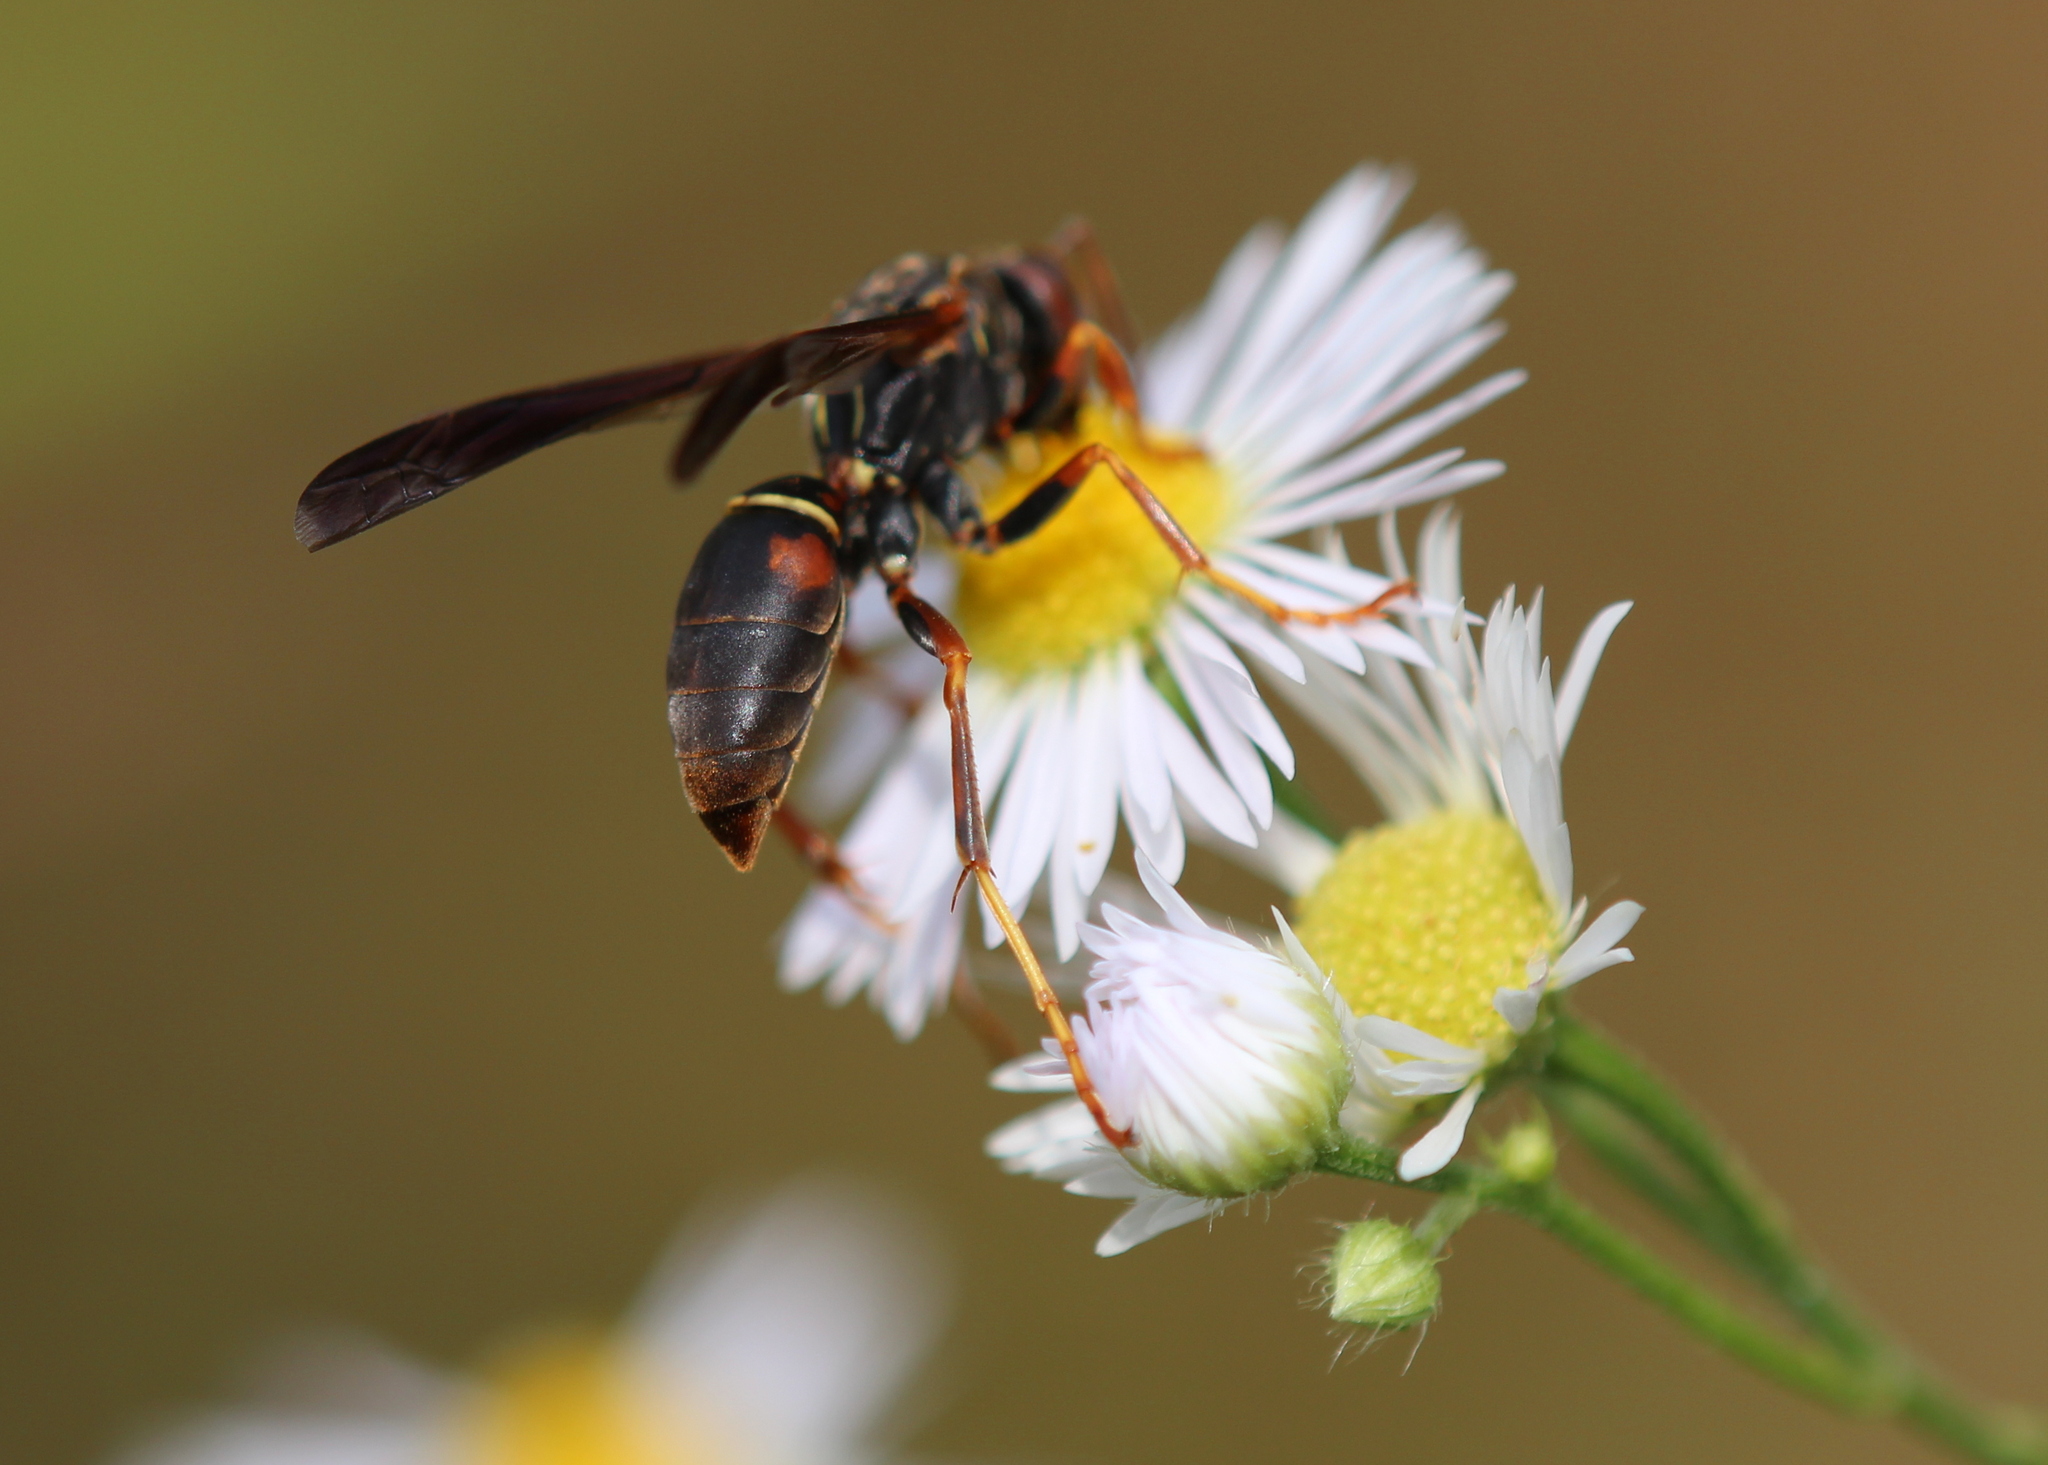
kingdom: Animalia
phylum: Arthropoda
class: Insecta
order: Hymenoptera
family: Eumenidae
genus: Polistes
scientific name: Polistes fuscatus
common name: Dark paper wasp
